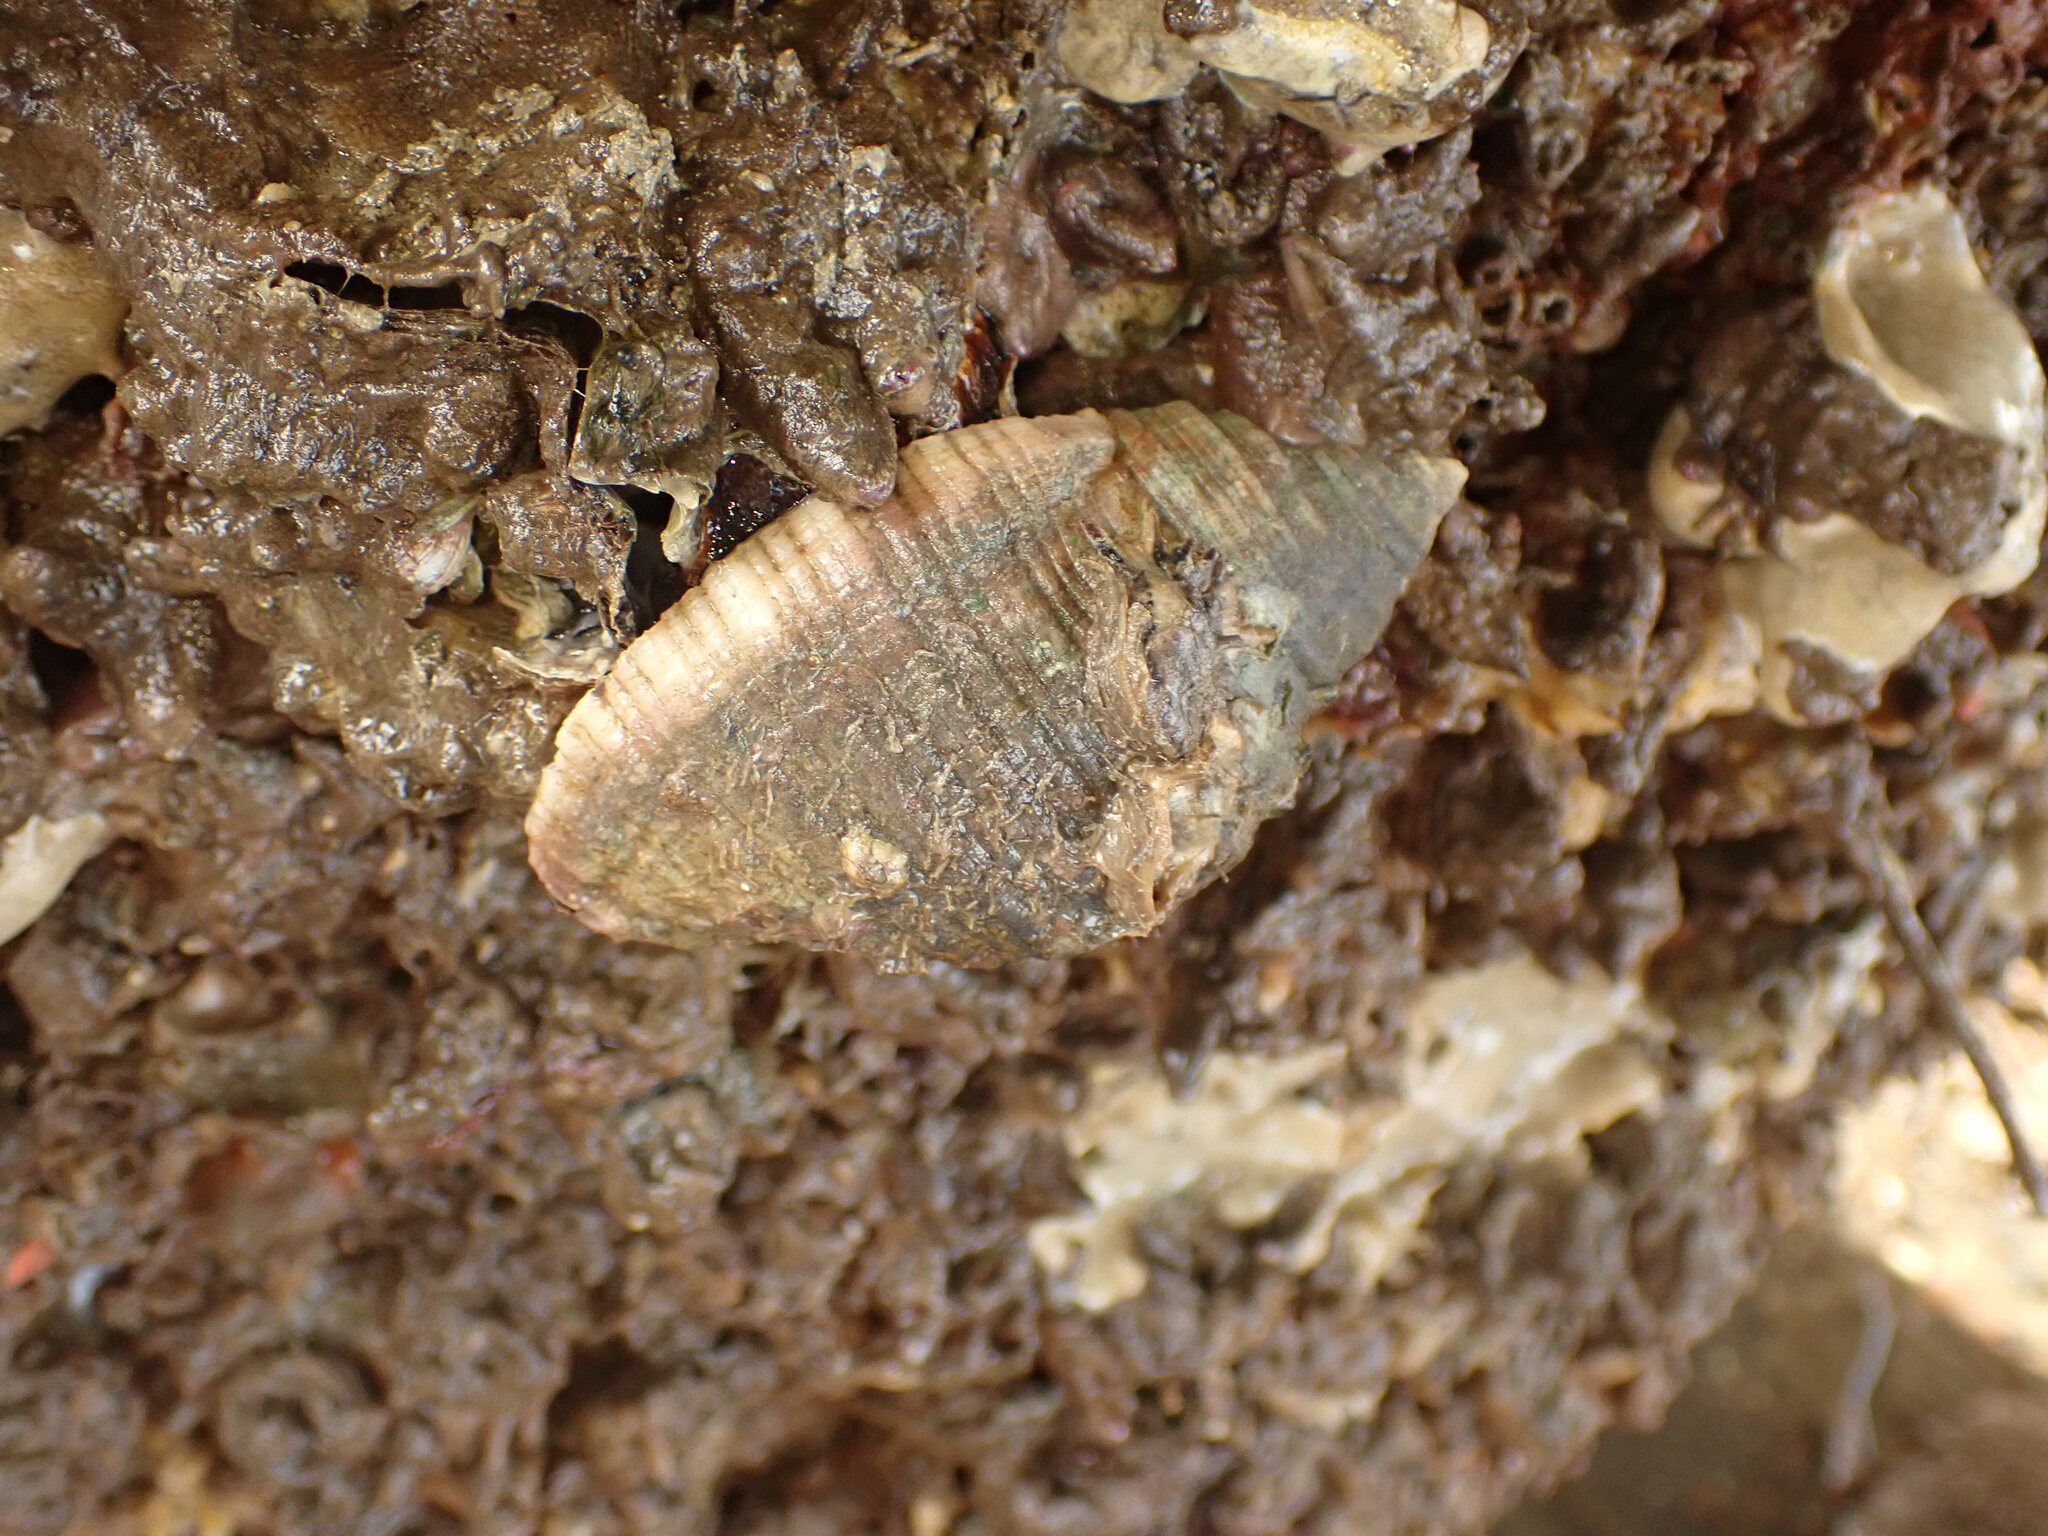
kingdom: Animalia
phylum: Mollusca
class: Gastropoda
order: Neogastropoda
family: Muricidae
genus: Dicathais
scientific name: Dicathais orbita
